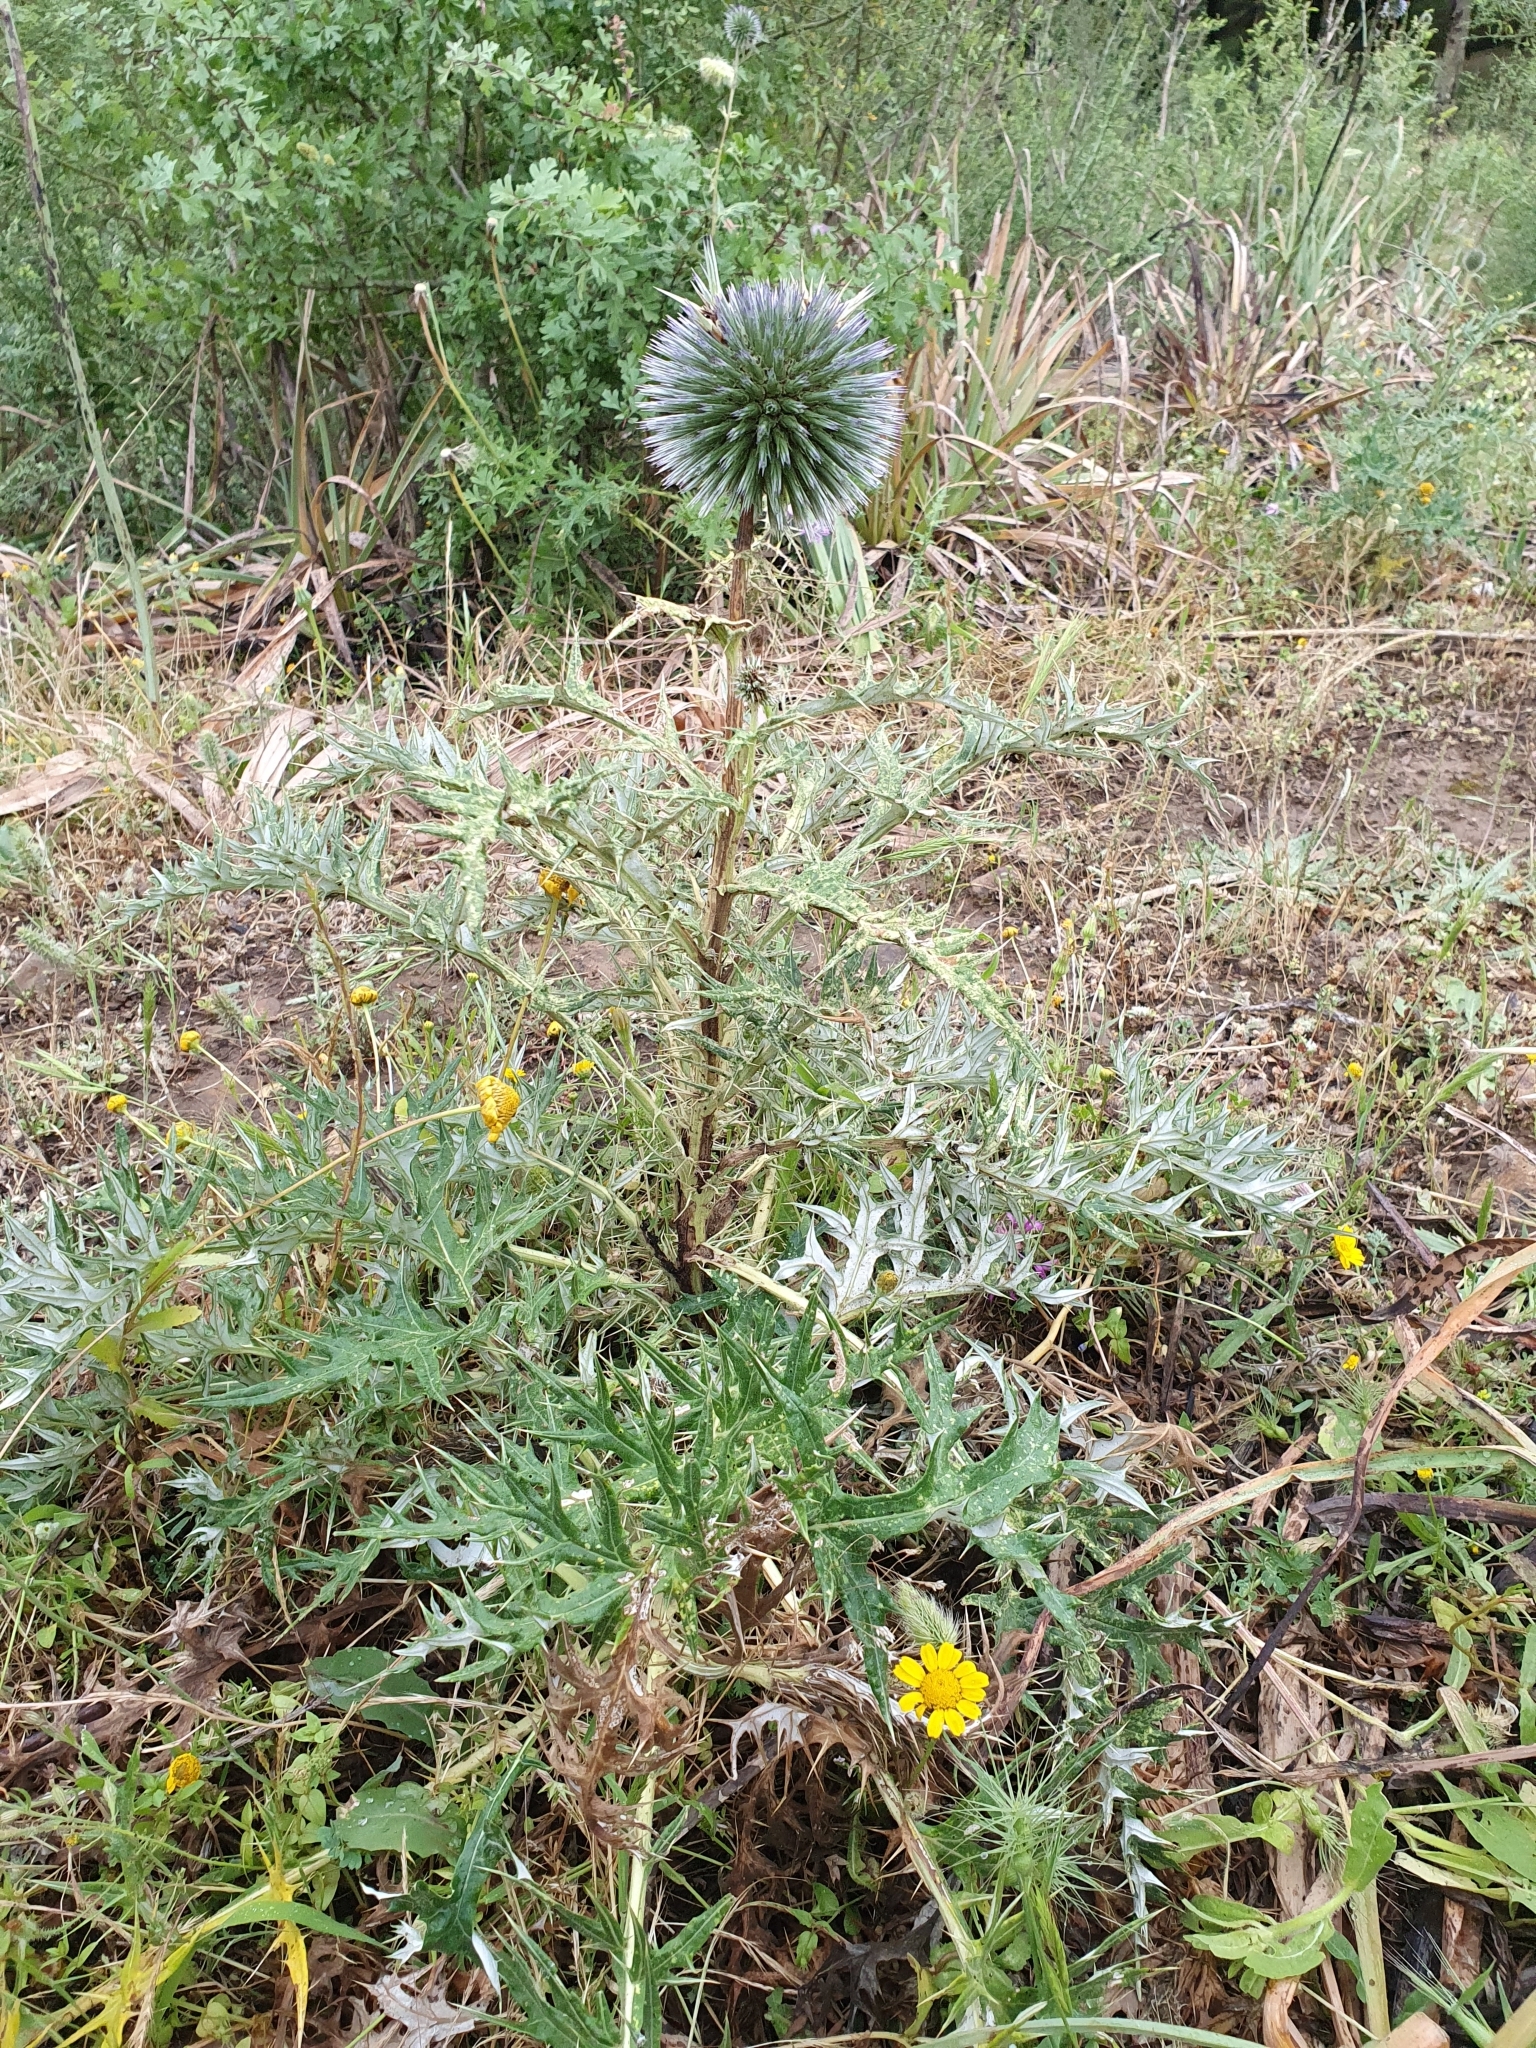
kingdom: Plantae
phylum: Tracheophyta
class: Magnoliopsida
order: Asterales
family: Asteraceae
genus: Echinops
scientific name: Echinops bovei
